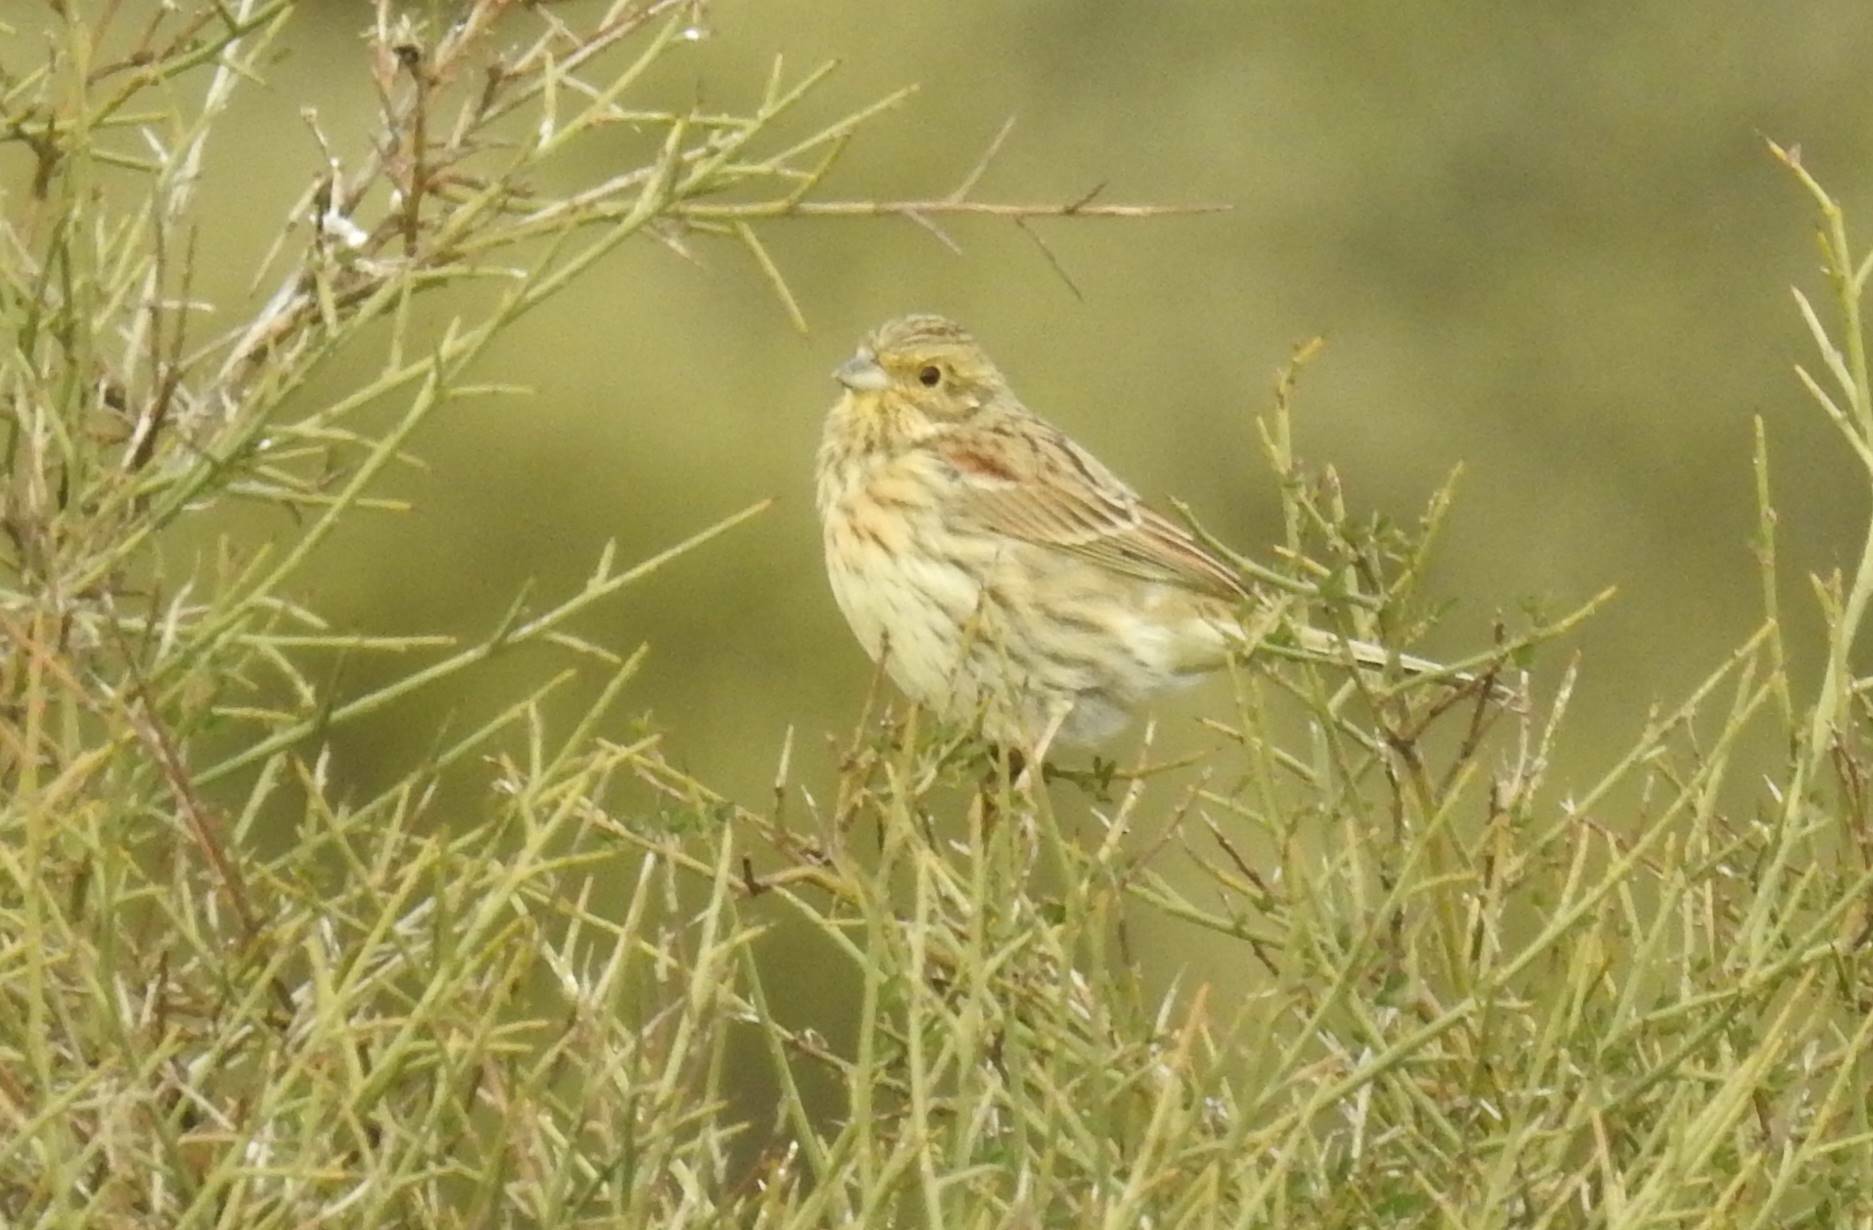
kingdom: Animalia
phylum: Chordata
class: Aves
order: Passeriformes
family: Emberizidae
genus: Emberiza
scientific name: Emberiza cirlus
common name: Cirl bunting
